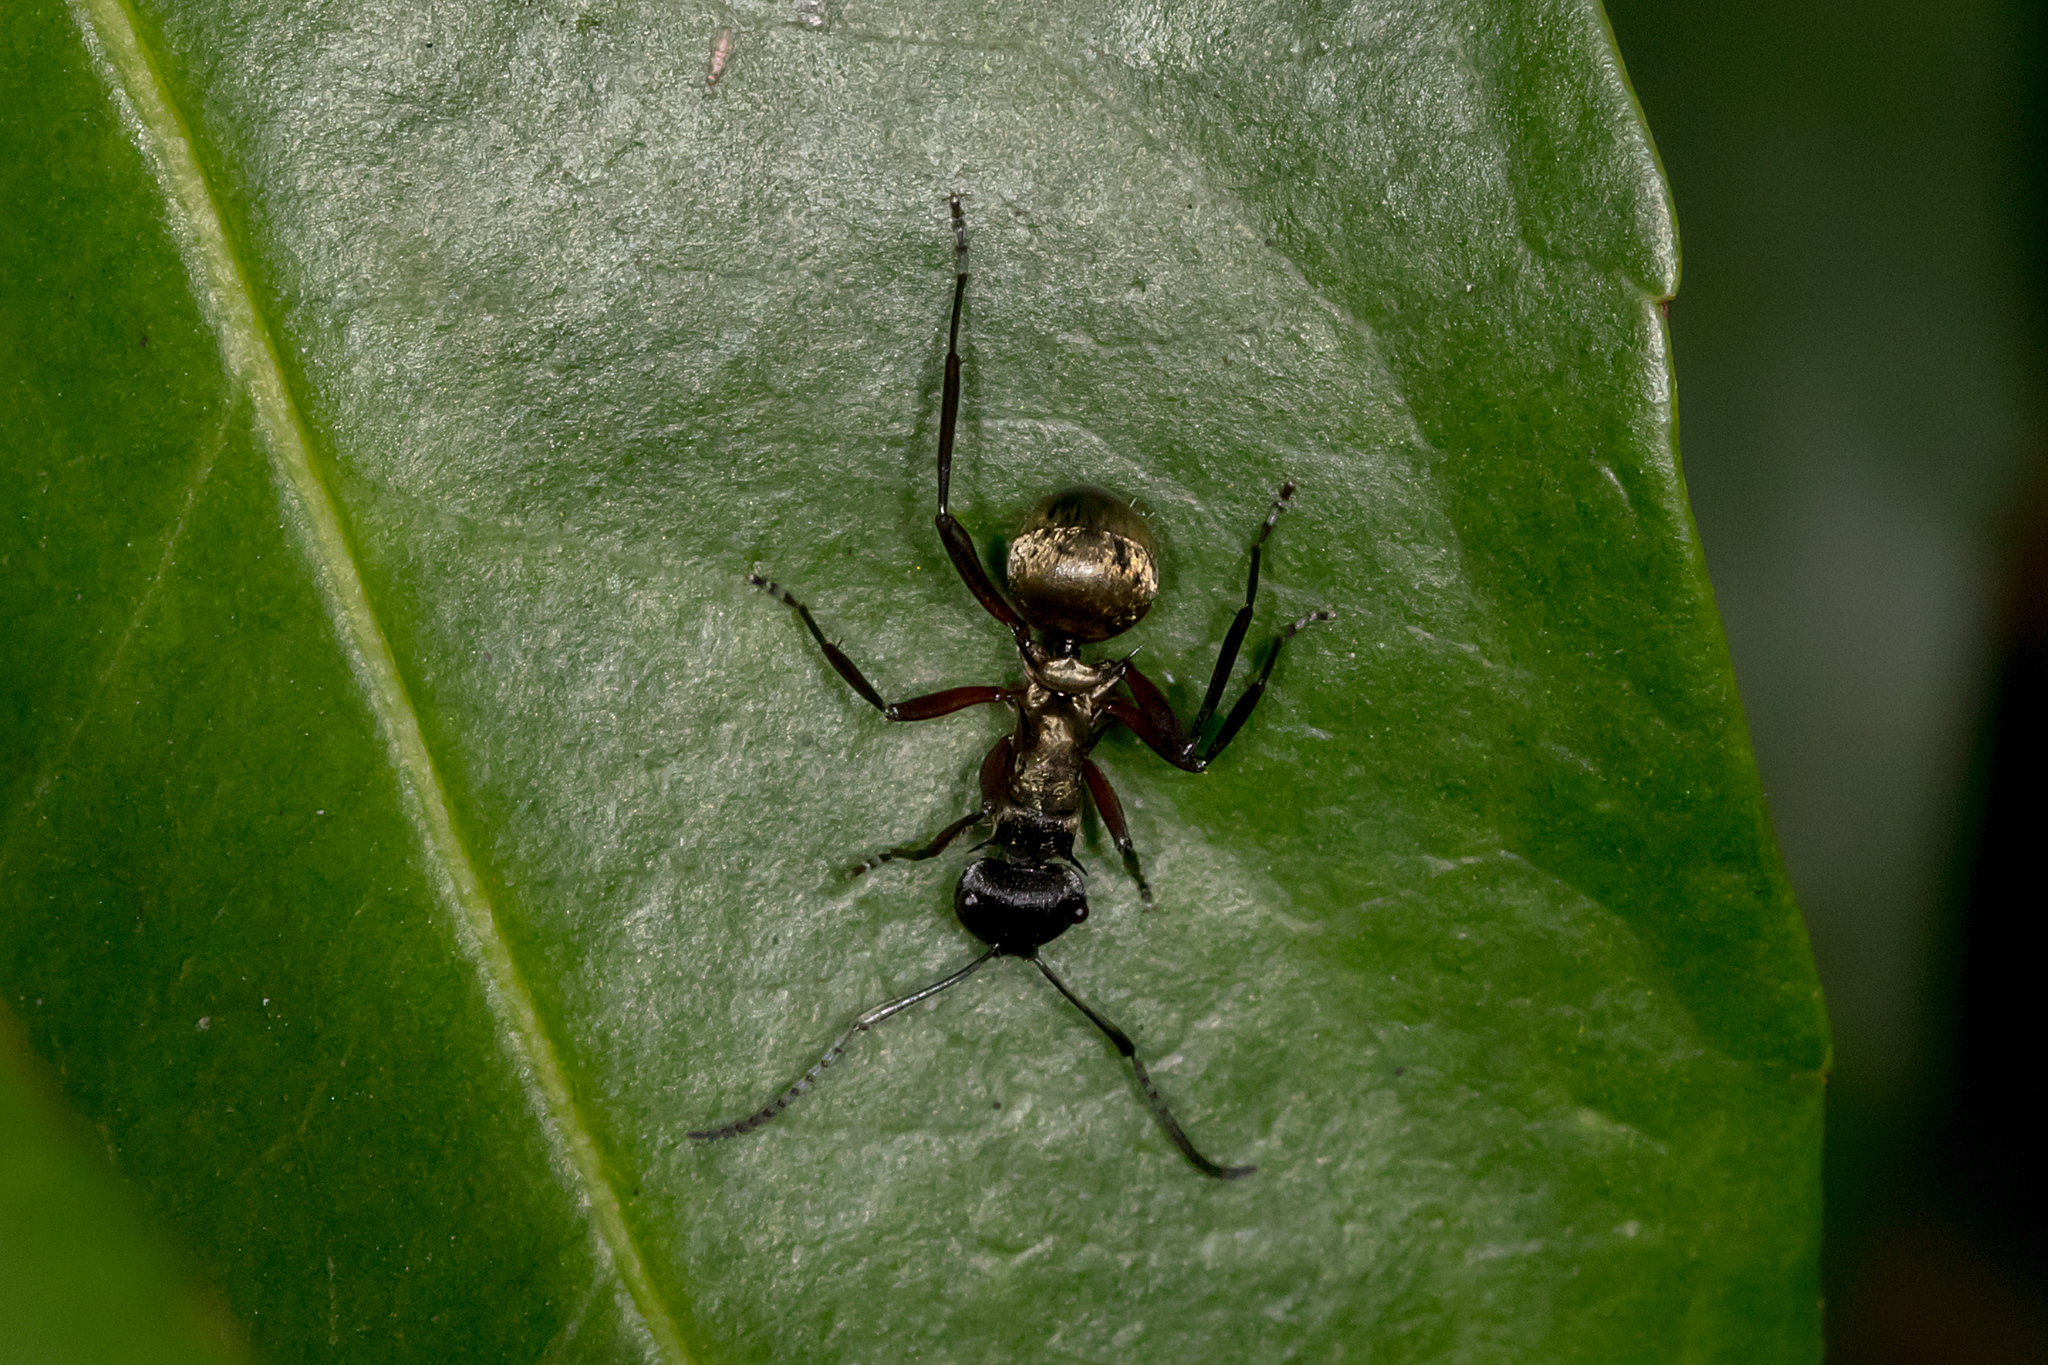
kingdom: Animalia
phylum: Arthropoda
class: Insecta
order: Hymenoptera
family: Formicidae
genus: Polyrhachis
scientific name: Polyrhachis rufifemur
